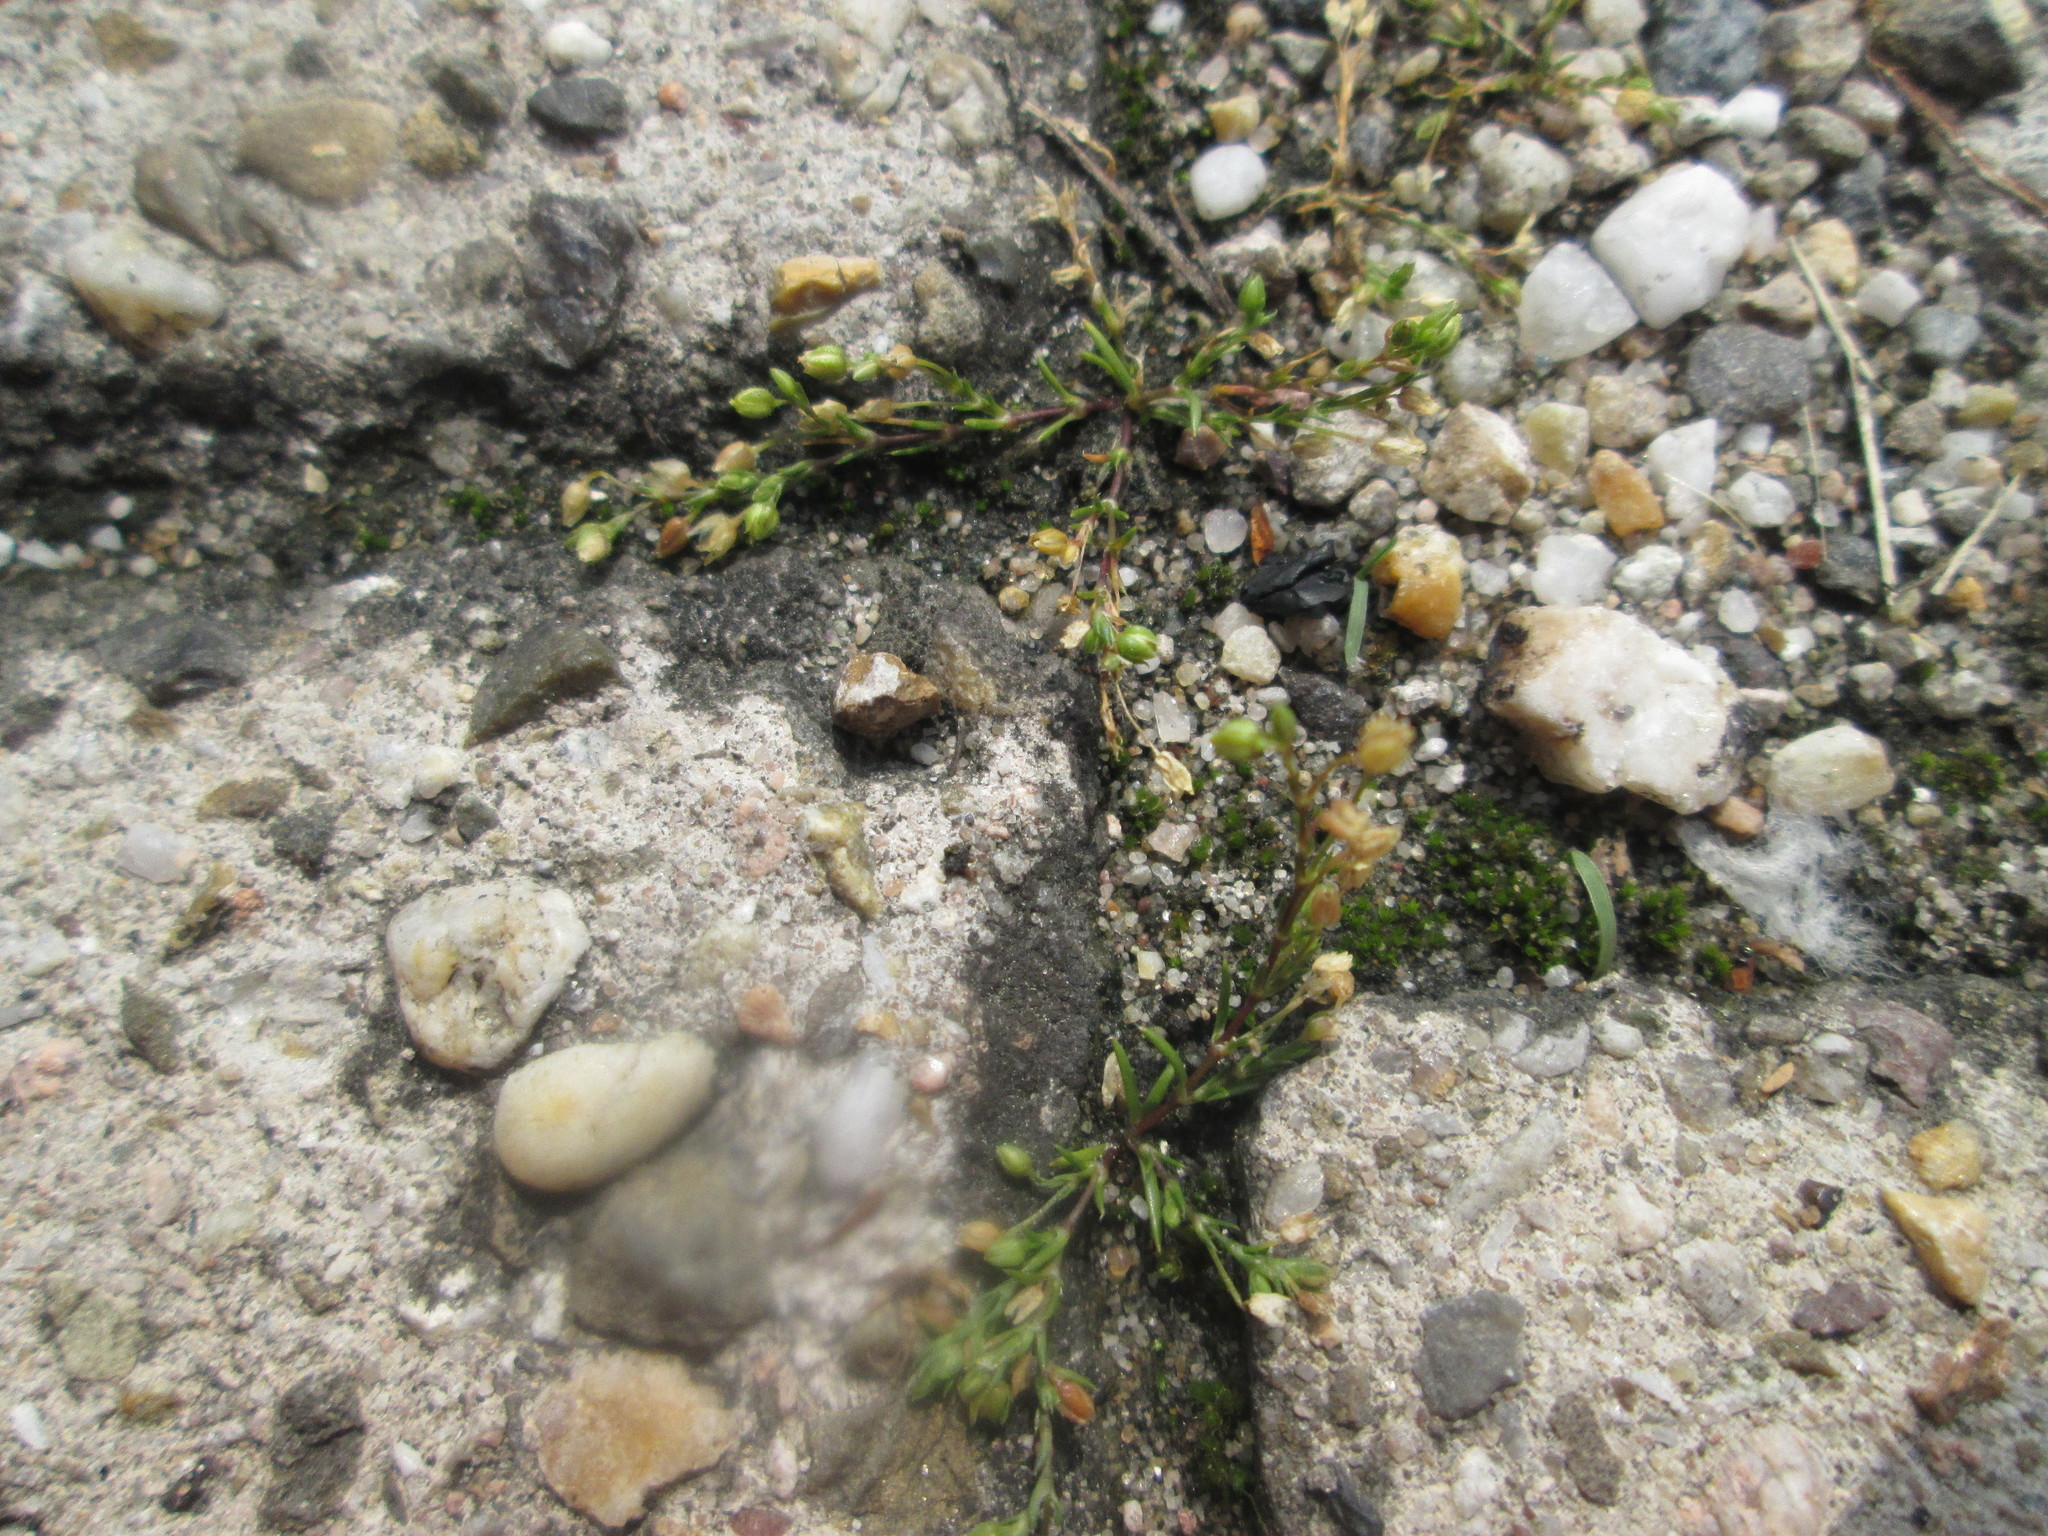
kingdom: Plantae
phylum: Tracheophyta
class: Magnoliopsida
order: Caryophyllales
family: Caryophyllaceae
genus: Sagina
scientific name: Sagina procumbens
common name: Procumbent pearlwort
